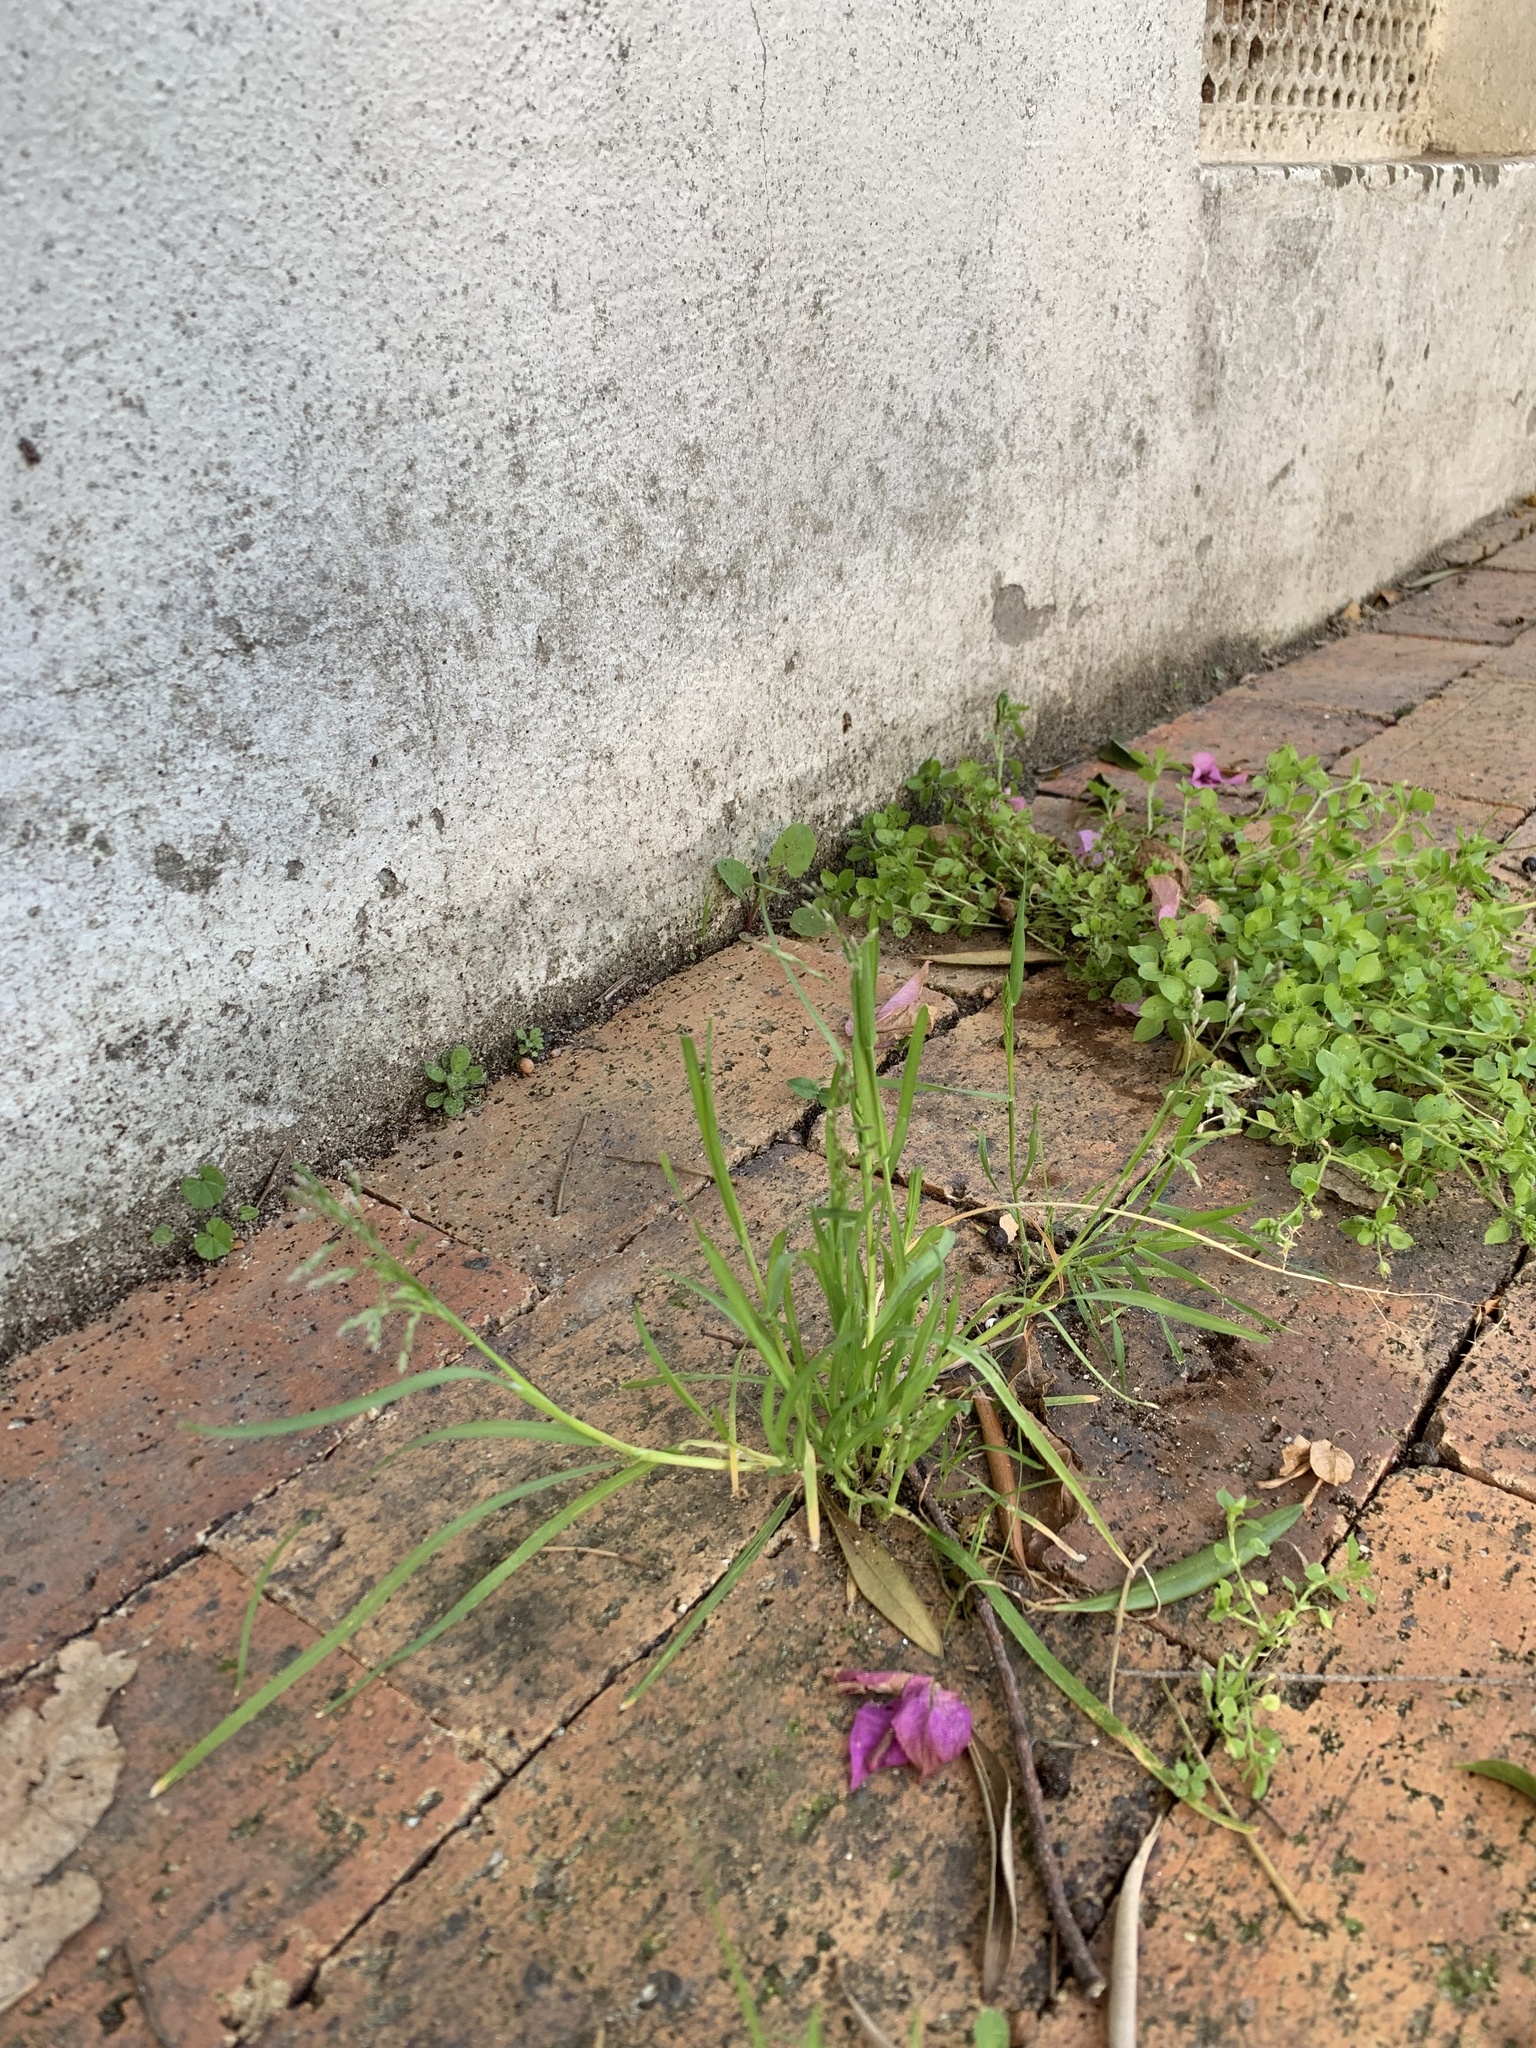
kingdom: Plantae
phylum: Tracheophyta
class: Liliopsida
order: Poales
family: Poaceae
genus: Poa
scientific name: Poa annua
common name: Annual bluegrass
